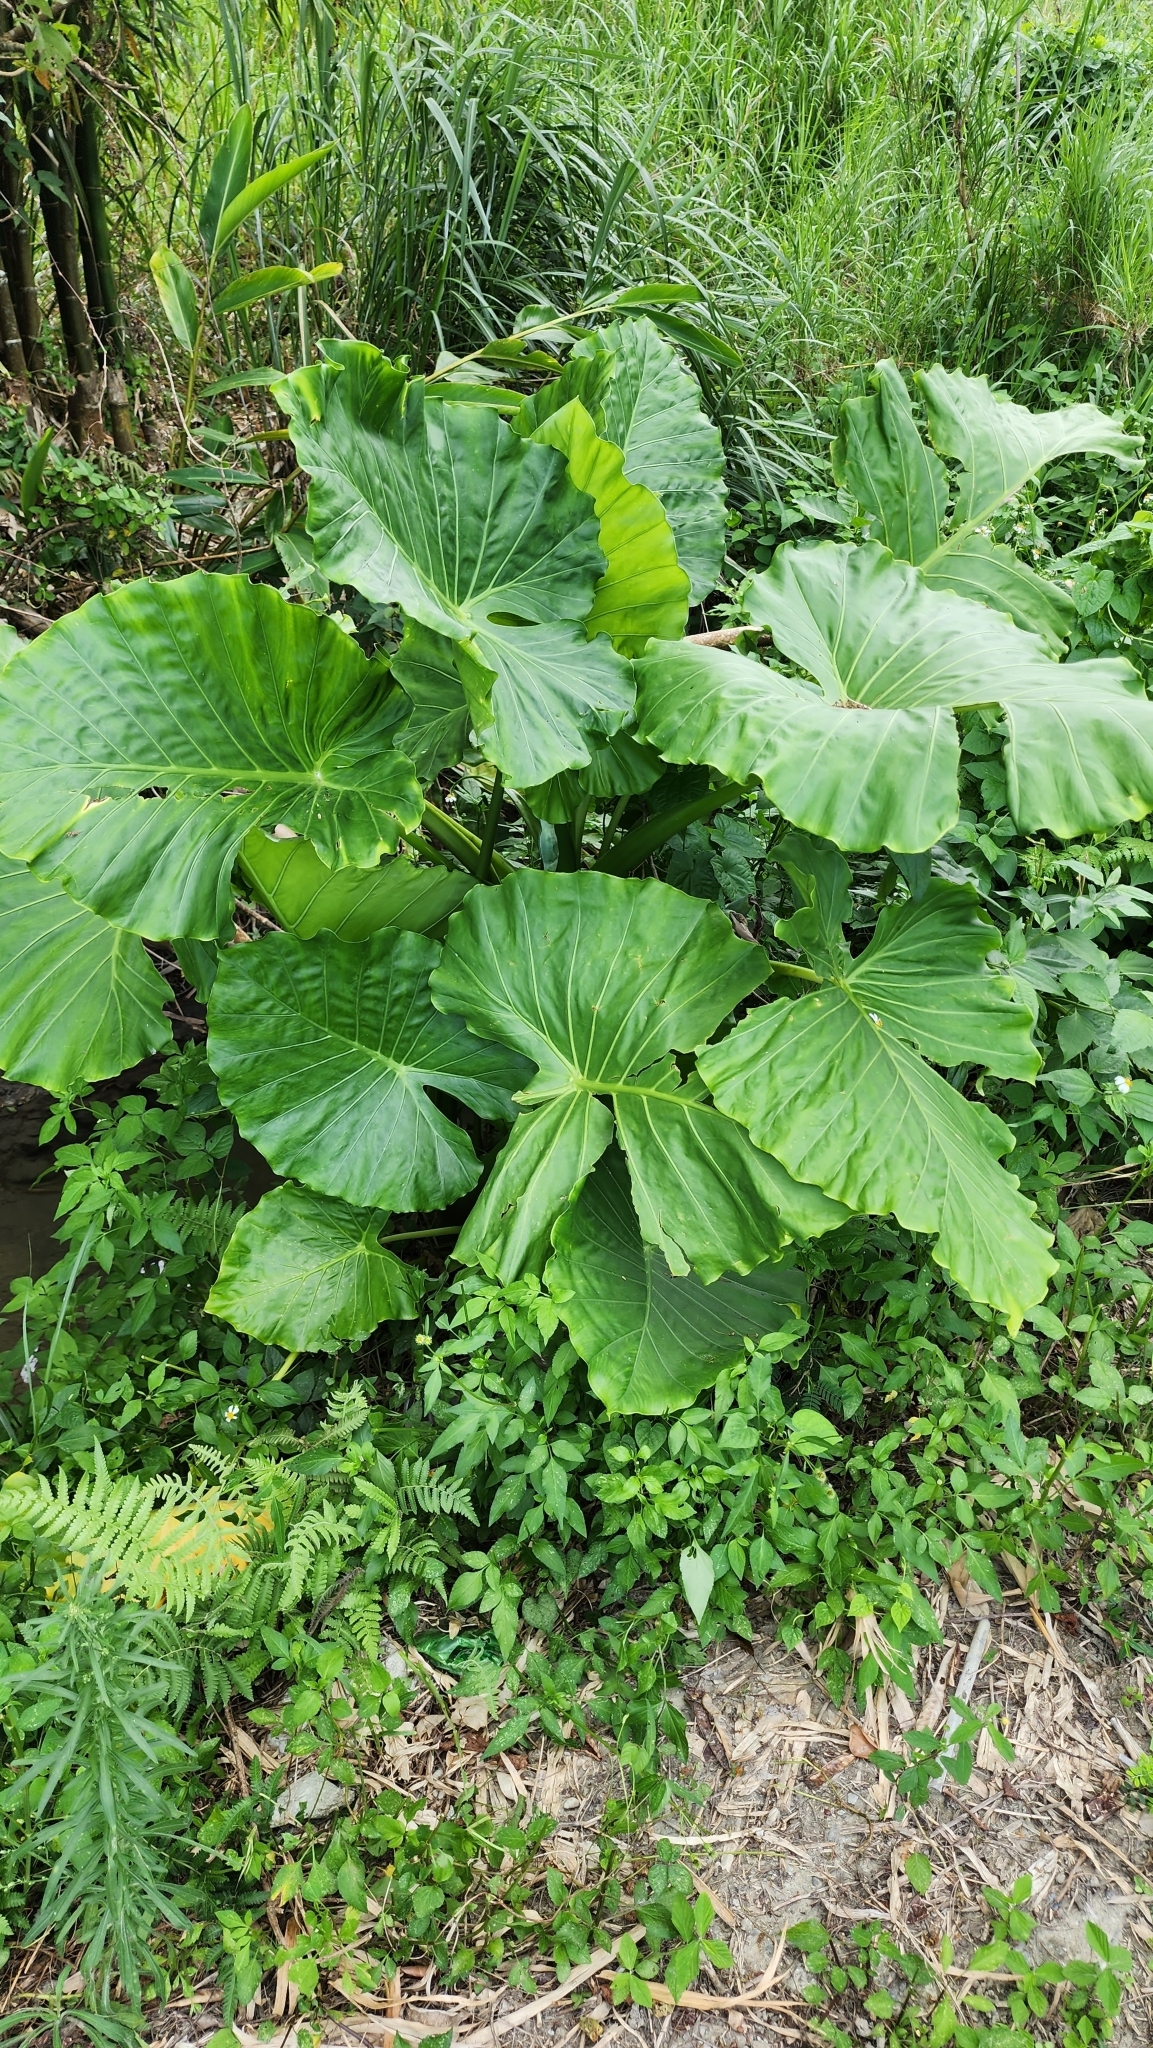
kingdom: Plantae
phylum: Tracheophyta
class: Liliopsida
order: Alismatales
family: Araceae
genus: Alocasia
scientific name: Alocasia odora
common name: Asian taro
